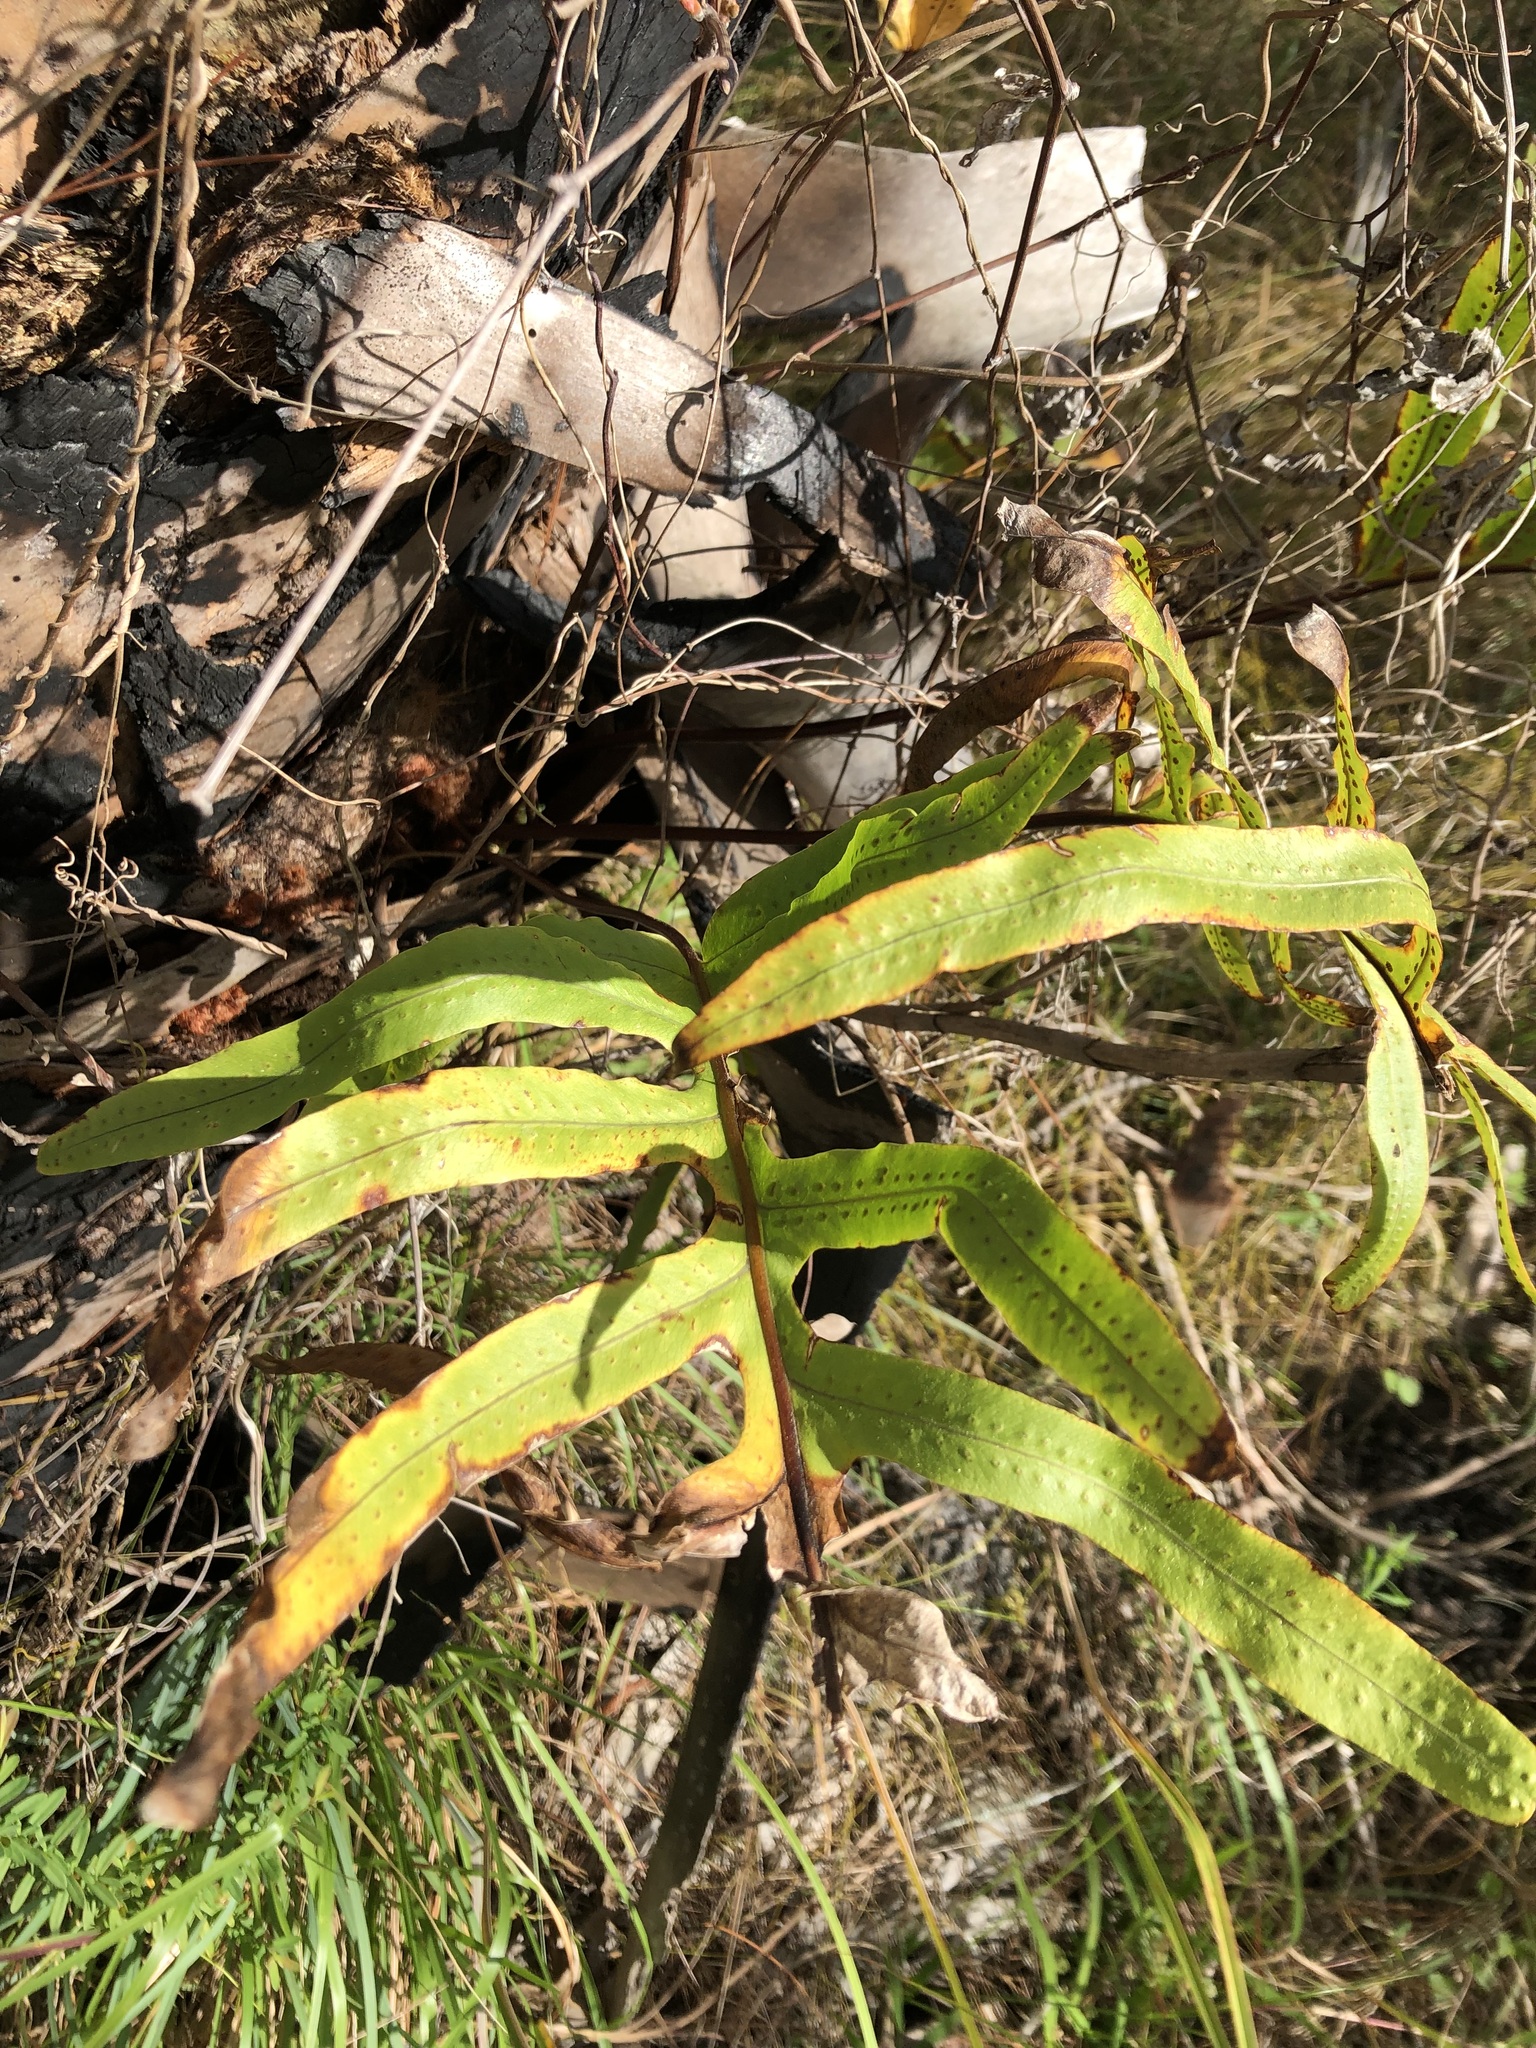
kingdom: Plantae
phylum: Tracheophyta
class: Polypodiopsida
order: Polypodiales
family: Polypodiaceae
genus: Phlebodium
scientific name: Phlebodium aureum
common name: Gold-foot fern
